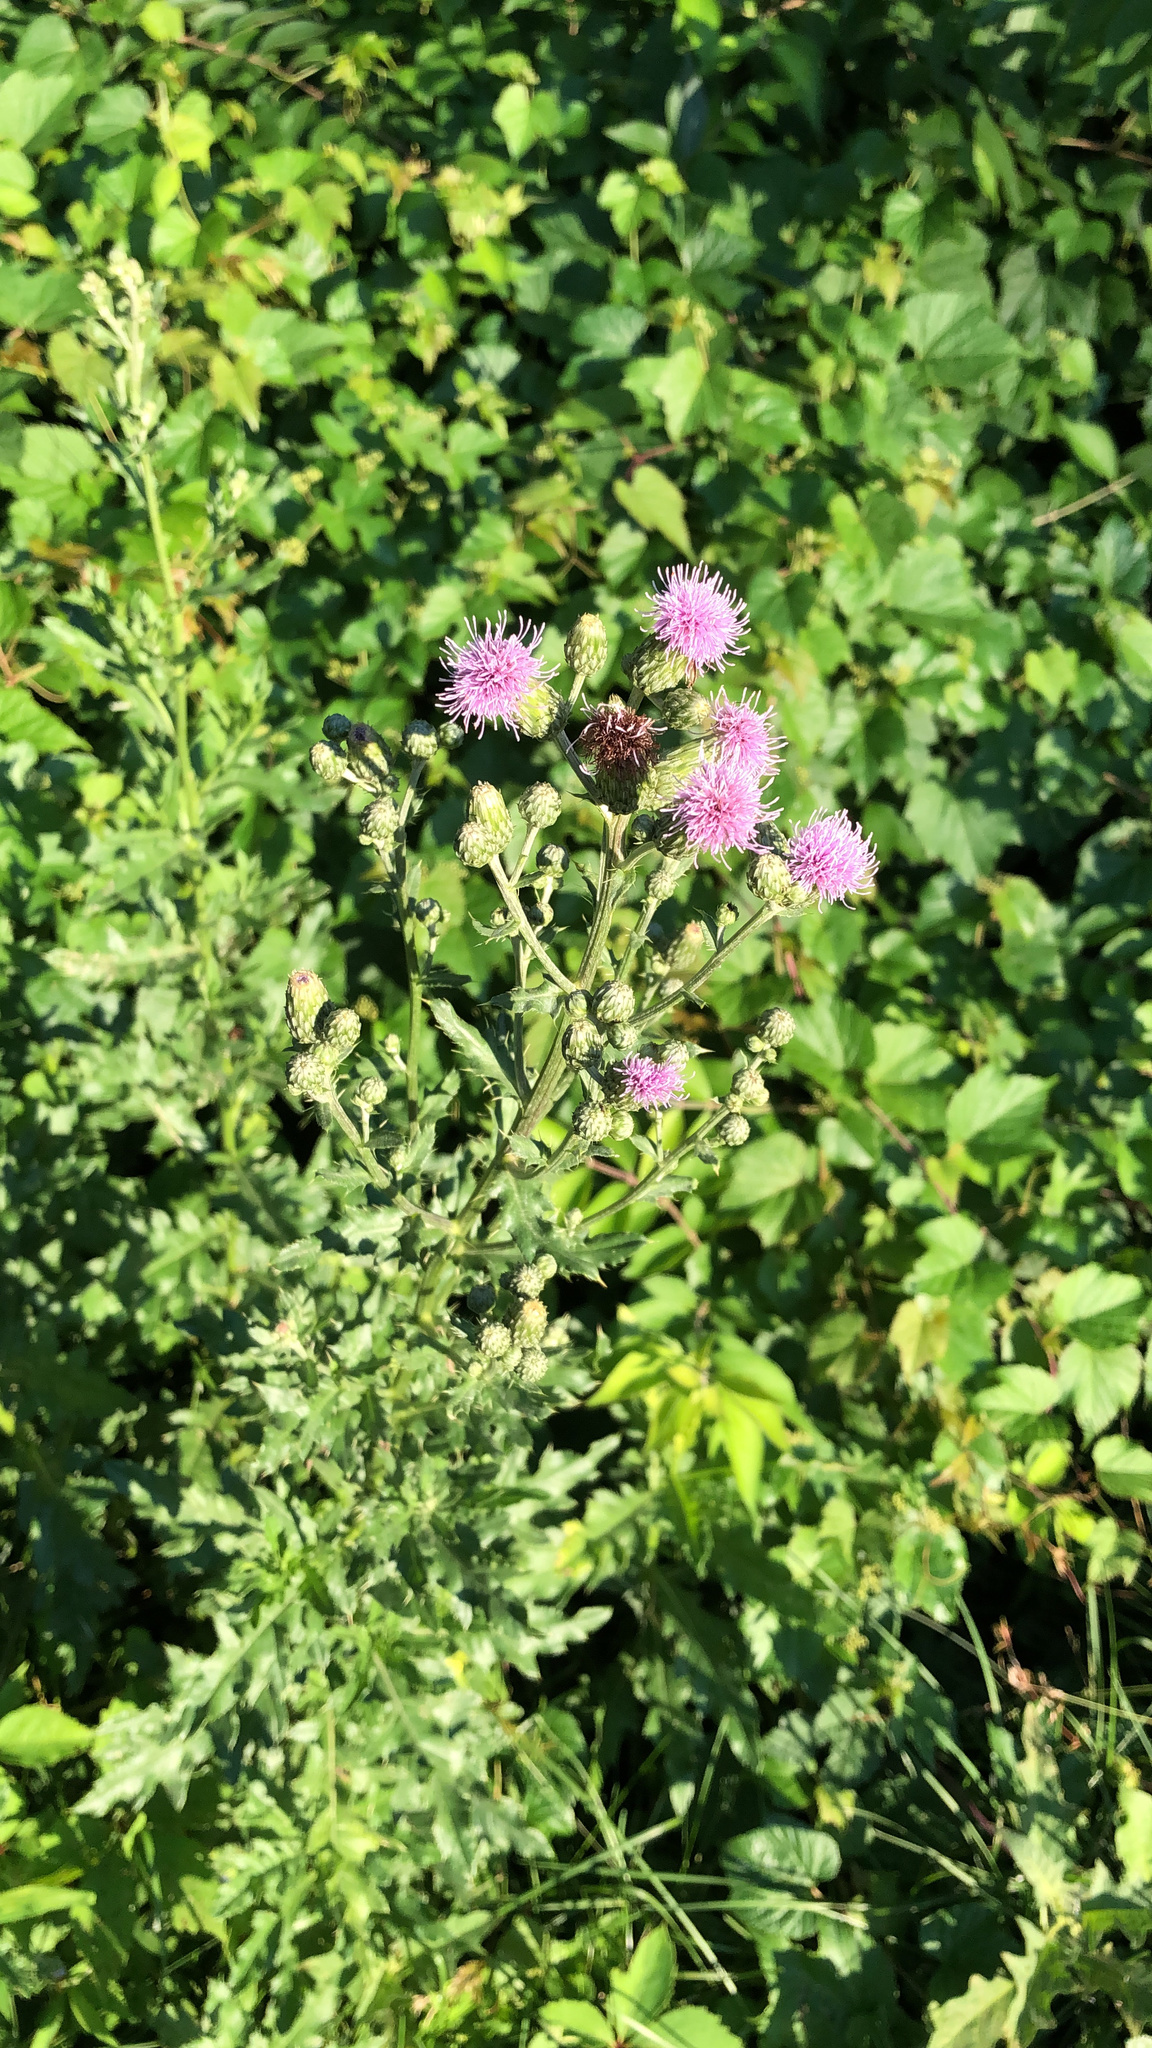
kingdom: Plantae
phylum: Tracheophyta
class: Magnoliopsida
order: Asterales
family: Asteraceae
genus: Cirsium
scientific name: Cirsium arvense
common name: Creeping thistle
